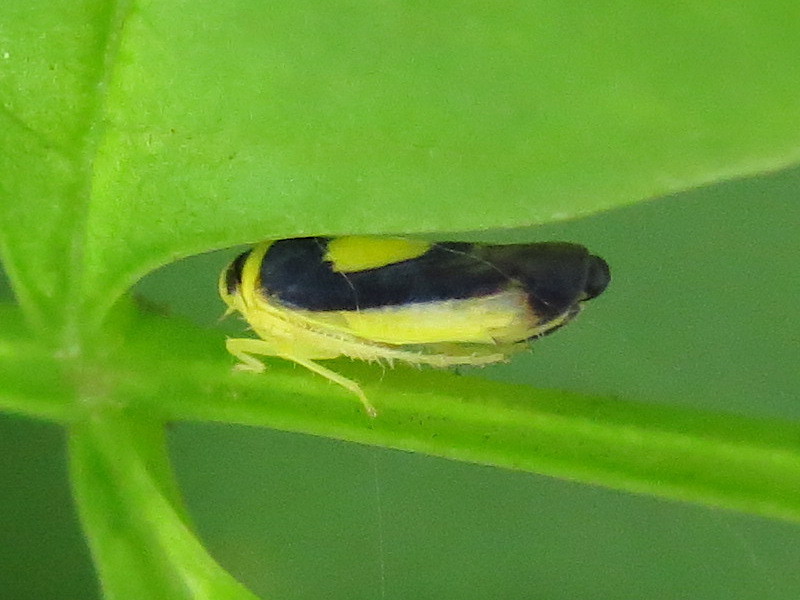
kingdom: Animalia
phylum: Arthropoda
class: Insecta
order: Hemiptera
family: Cicadellidae
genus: Colladonus
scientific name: Colladonus clitellarius
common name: The saddleback leafhopper
